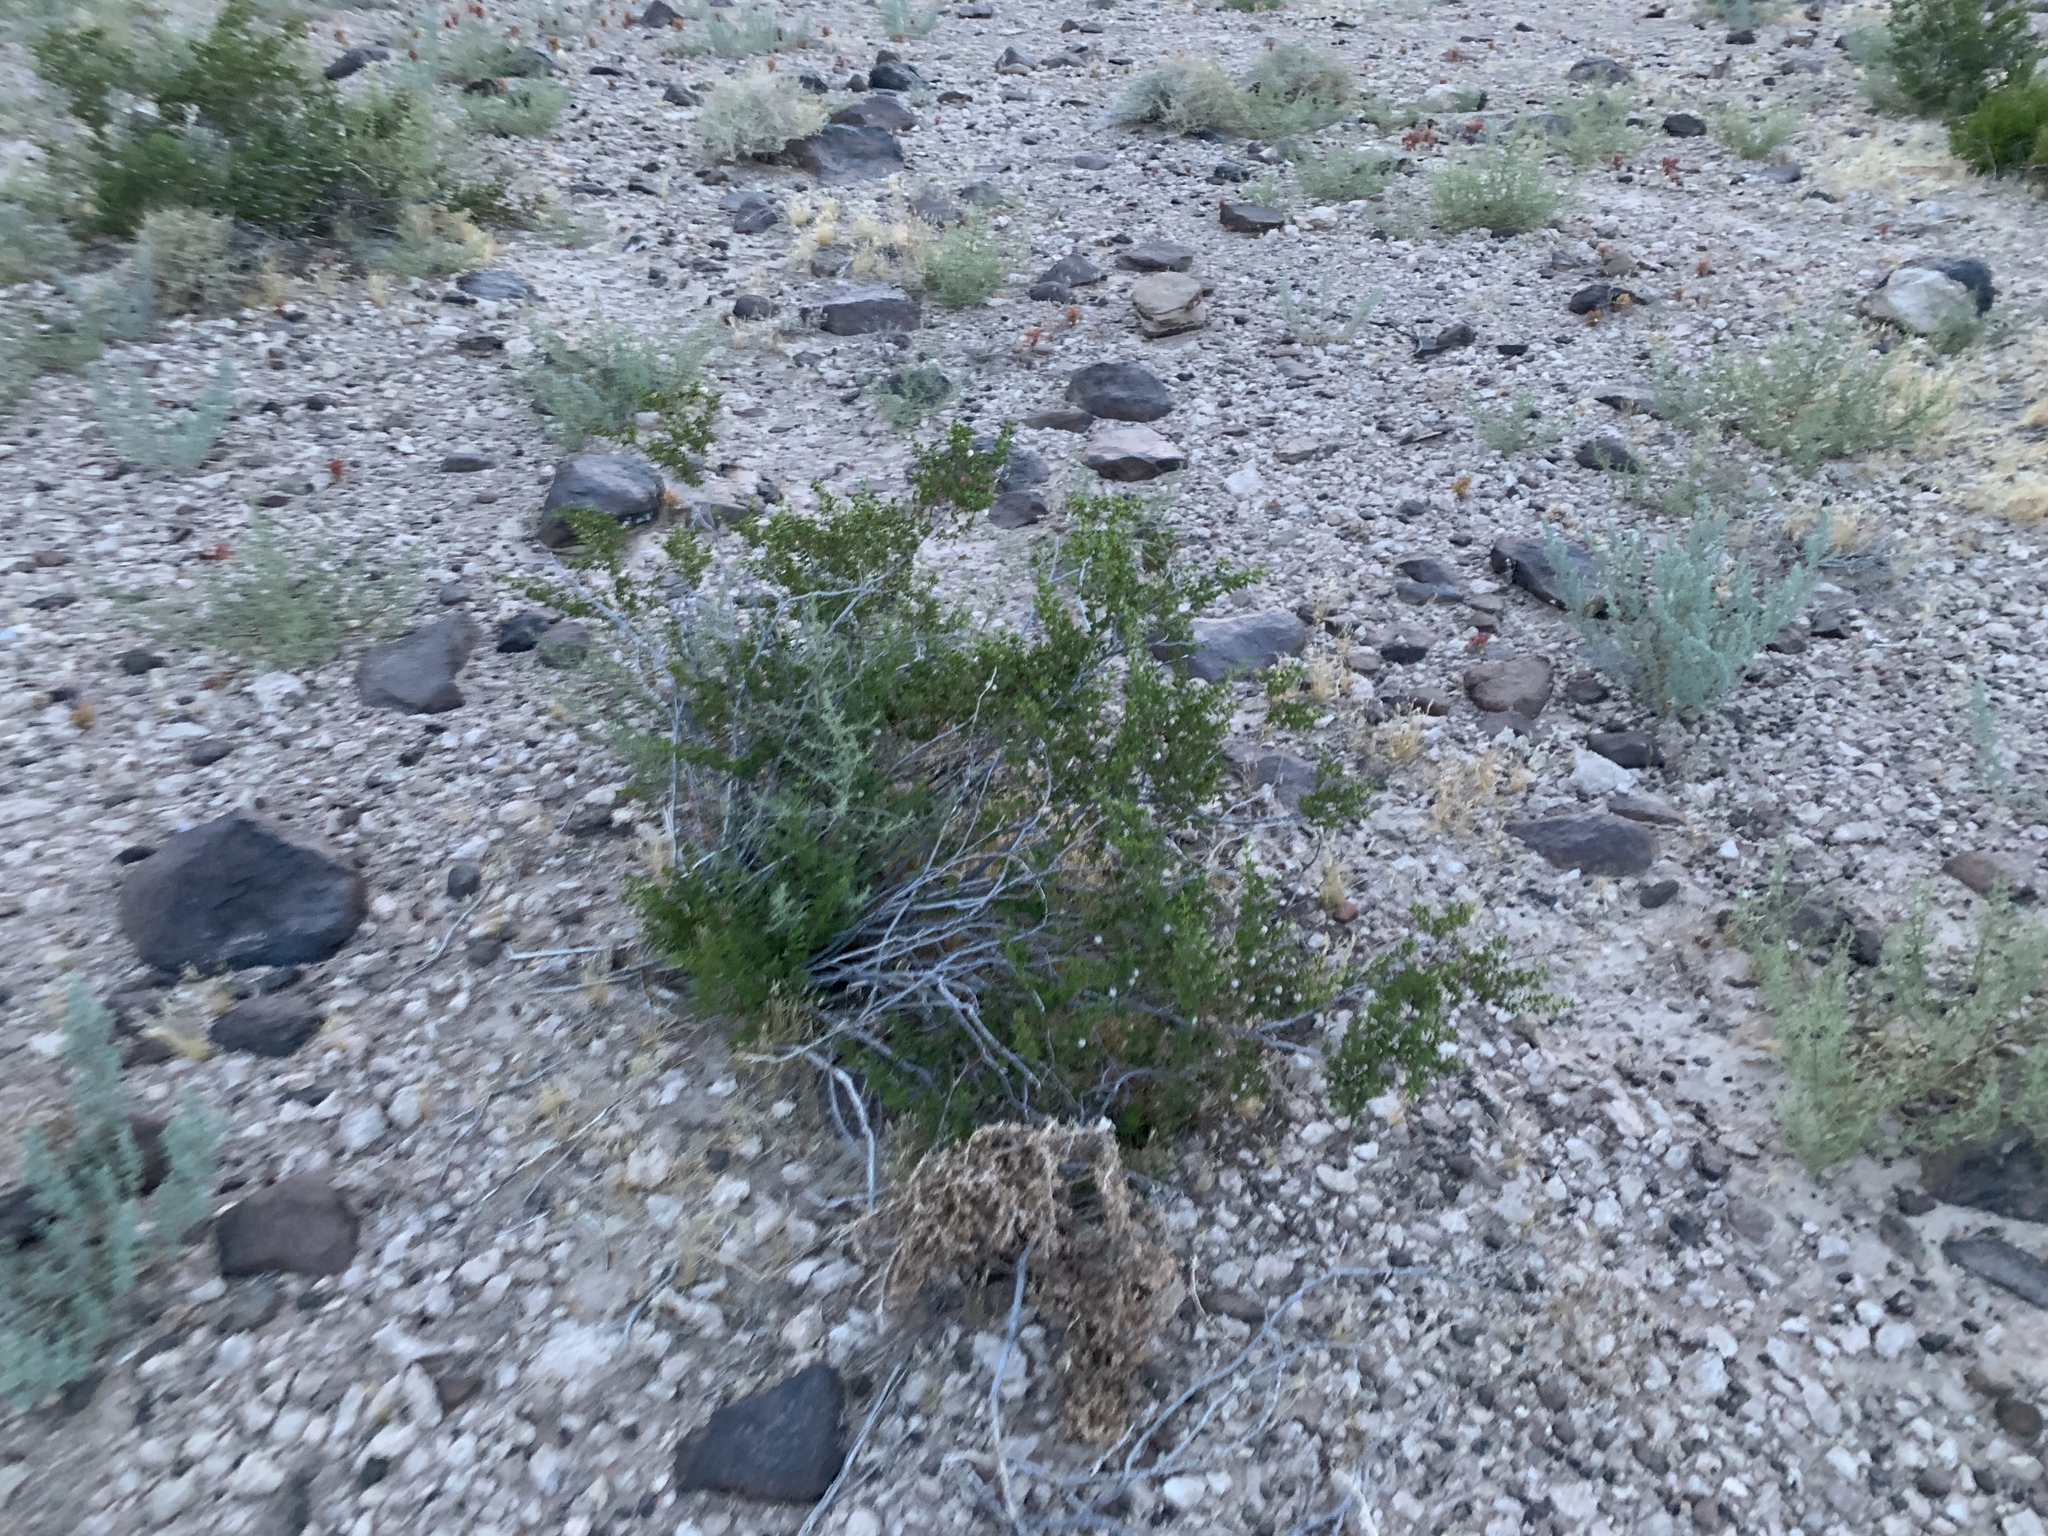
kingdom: Plantae
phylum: Tracheophyta
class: Magnoliopsida
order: Zygophyllales
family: Zygophyllaceae
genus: Larrea
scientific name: Larrea tridentata
